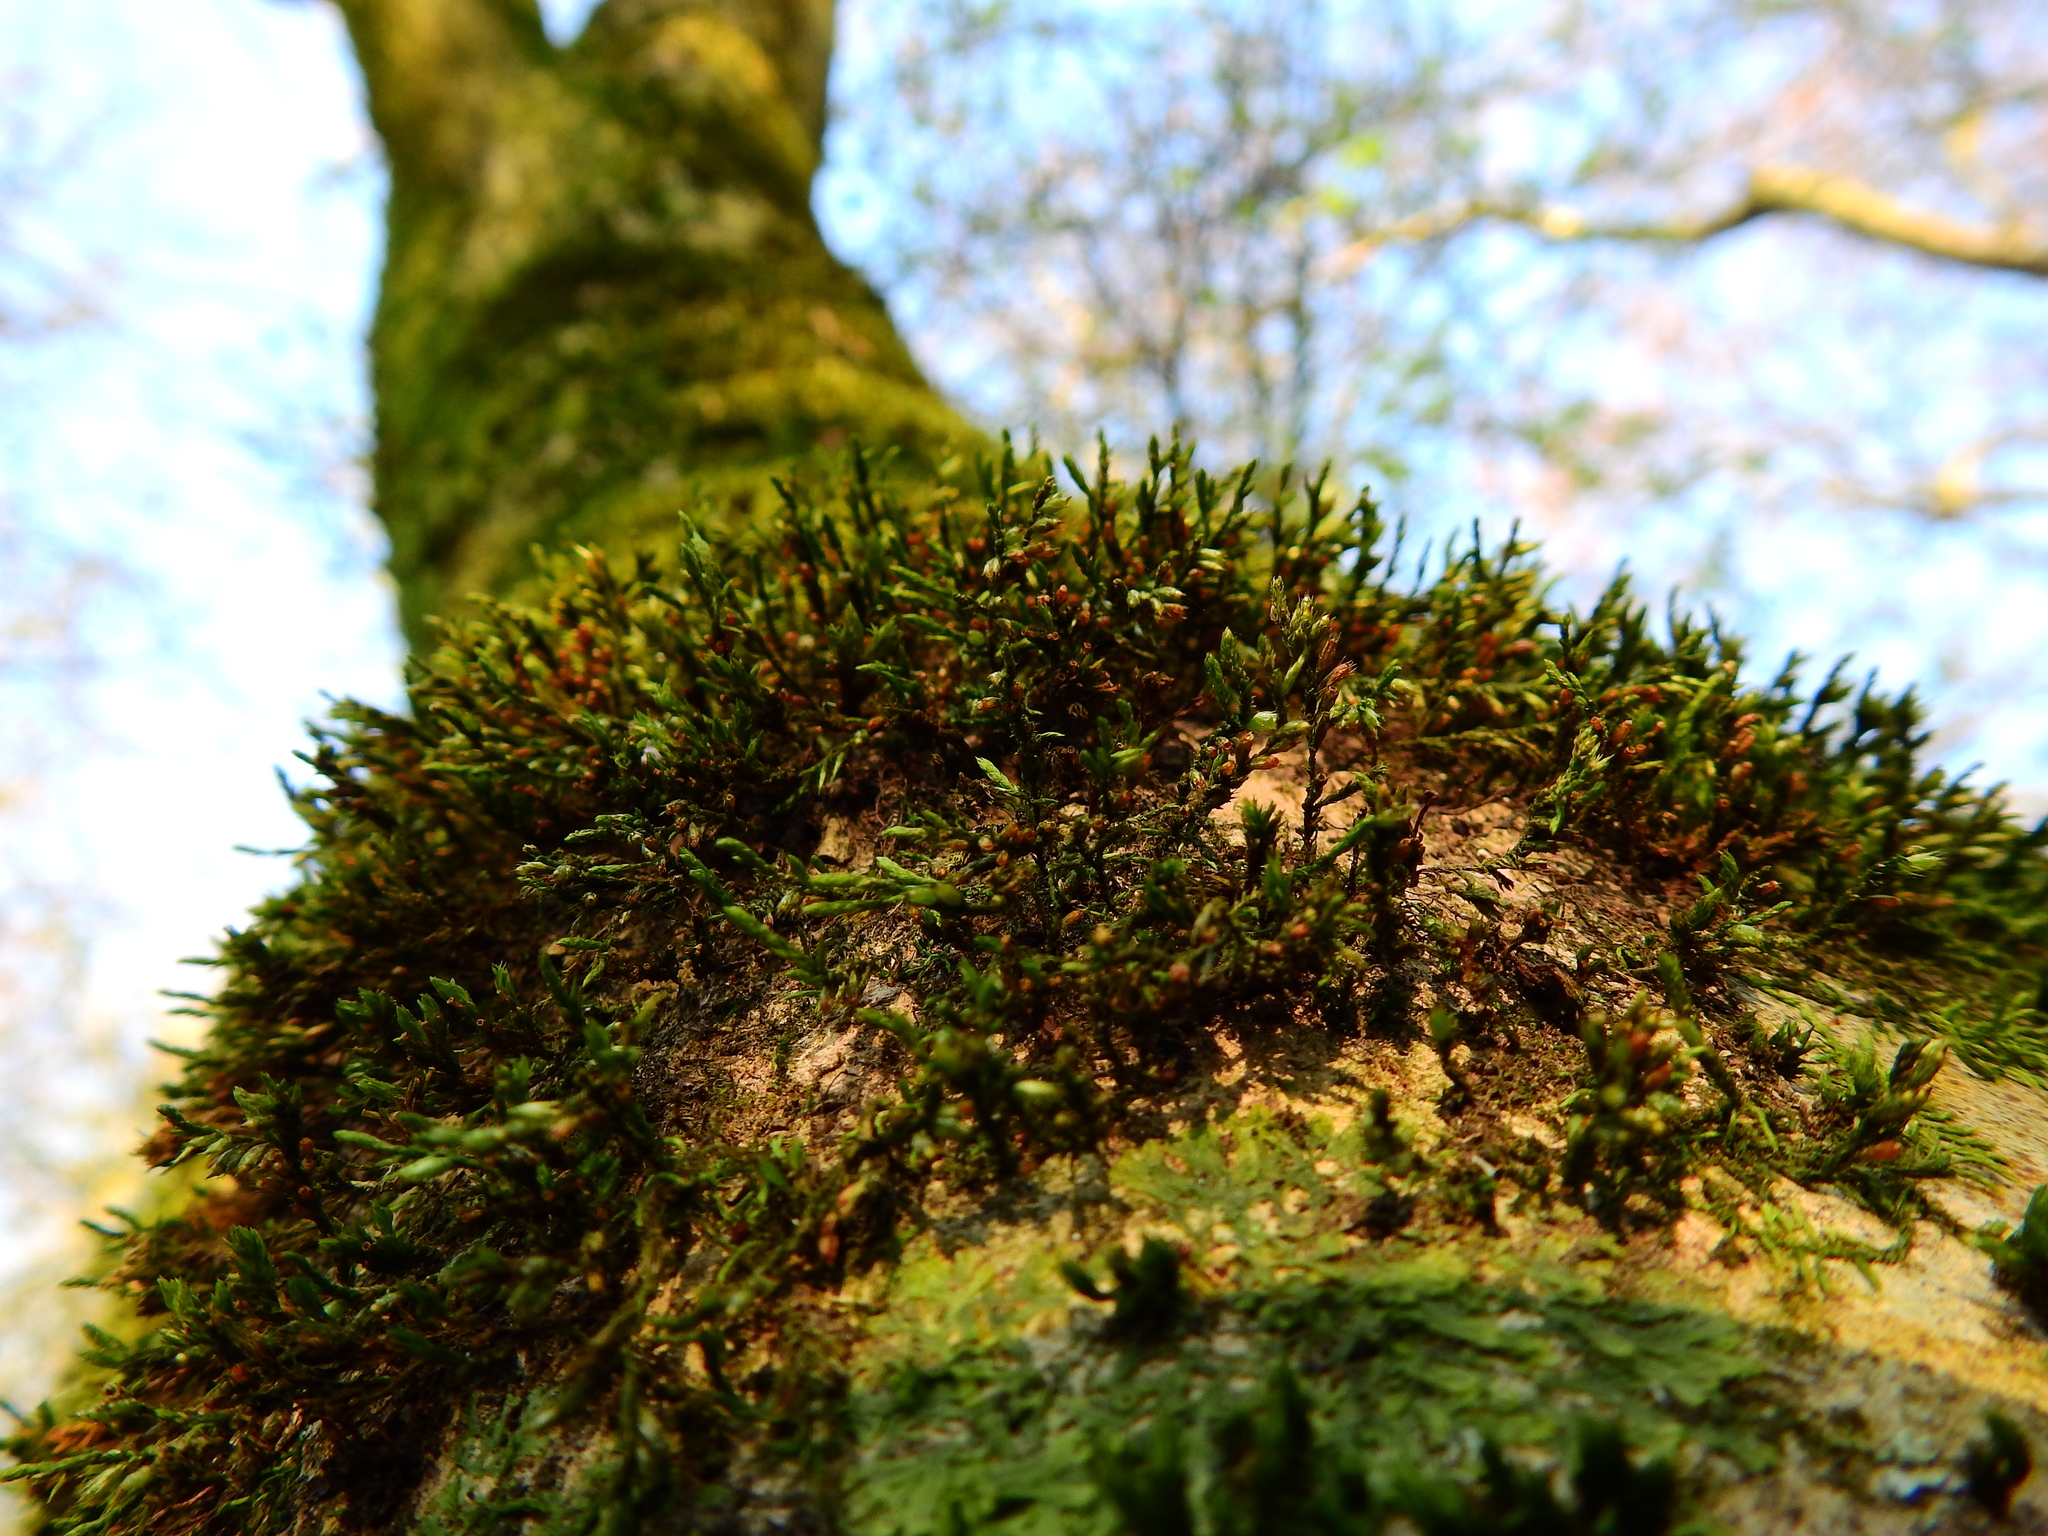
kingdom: Plantae
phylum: Bryophyta
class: Bryopsida
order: Hypnales
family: Cryphaeaceae
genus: Cryphaea
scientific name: Cryphaea heteromalla
